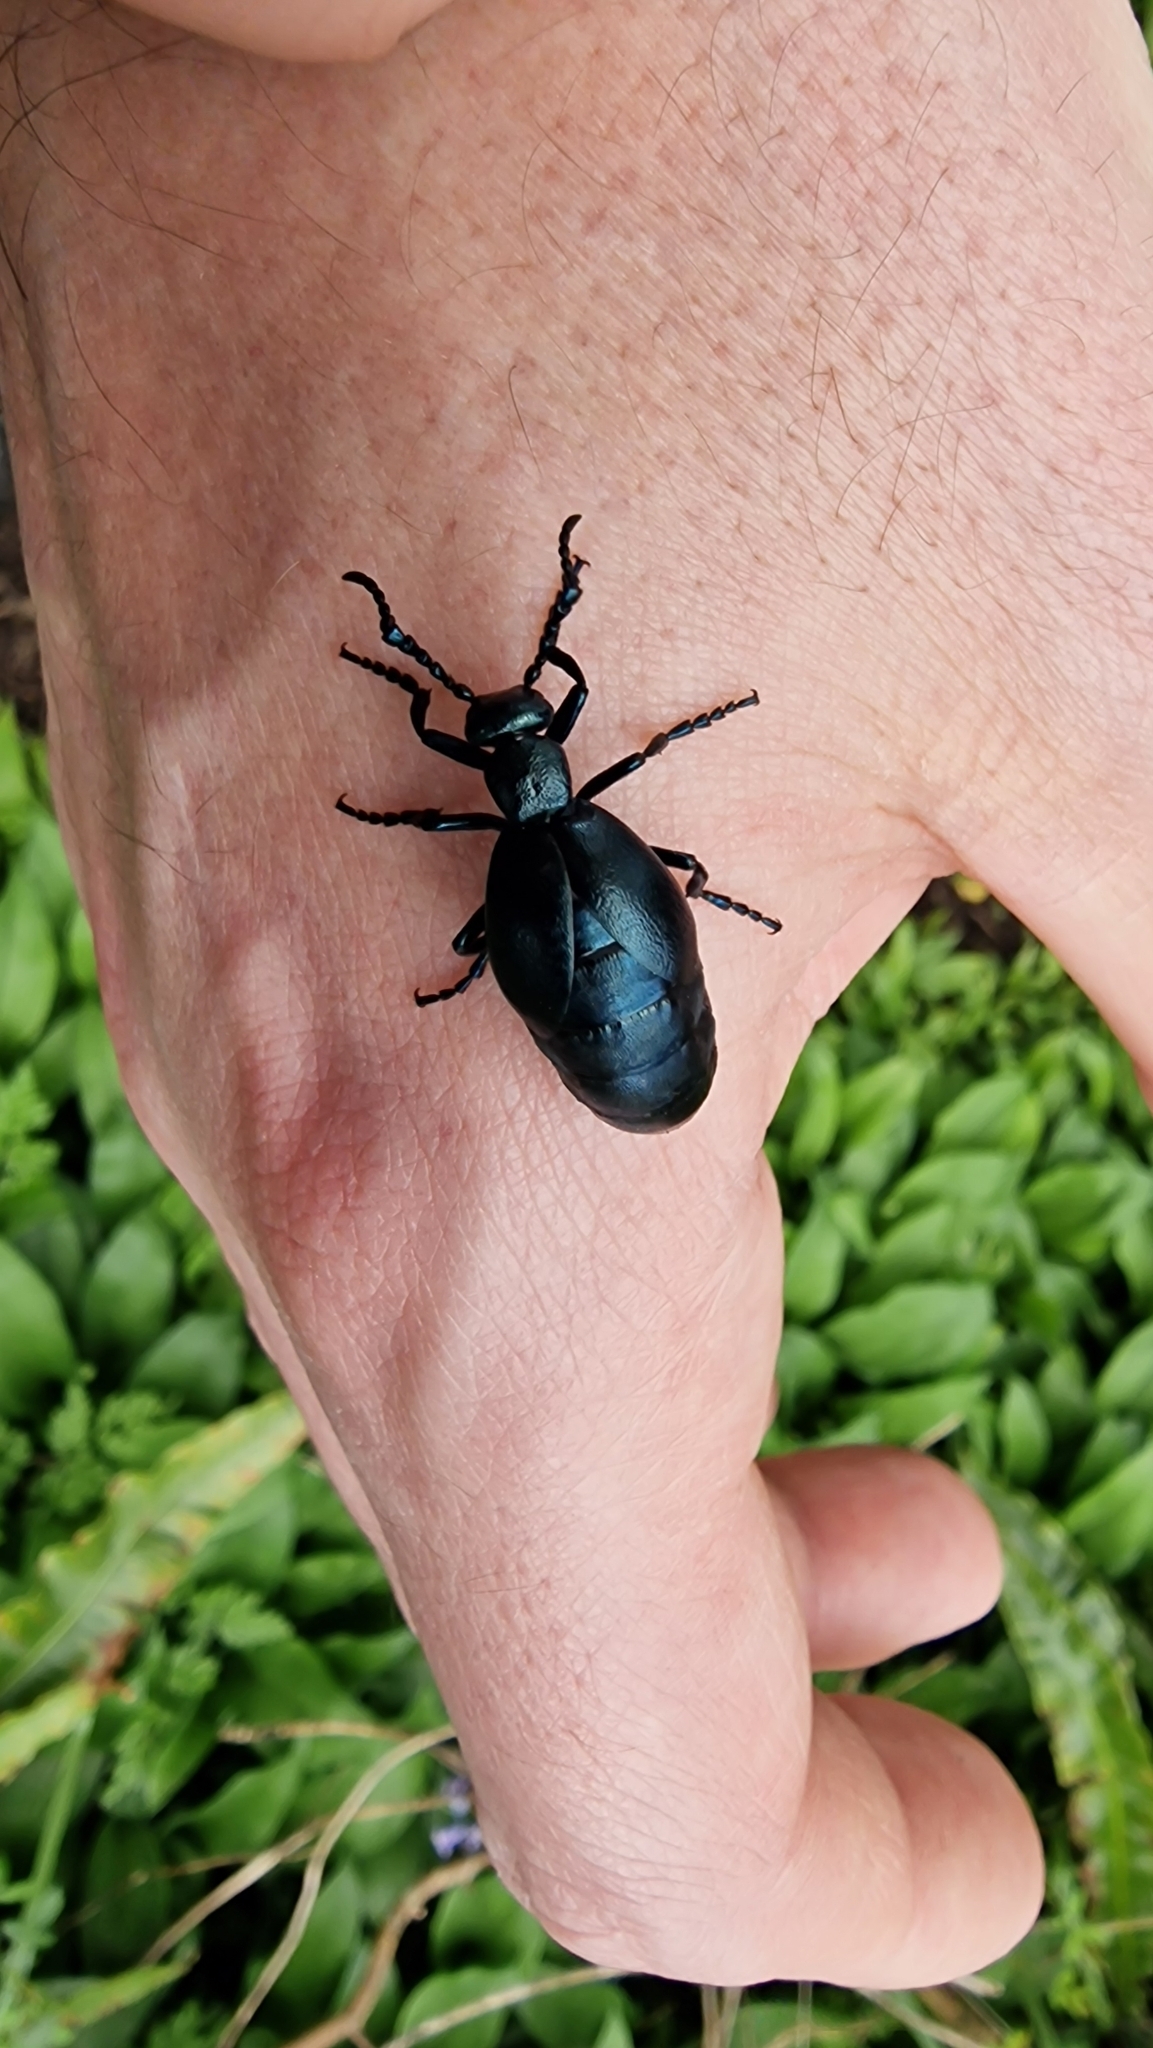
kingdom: Animalia
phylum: Arthropoda
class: Insecta
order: Coleoptera
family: Meloidae
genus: Meloe
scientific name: Meloe violaceus
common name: Violet oil-beetle
